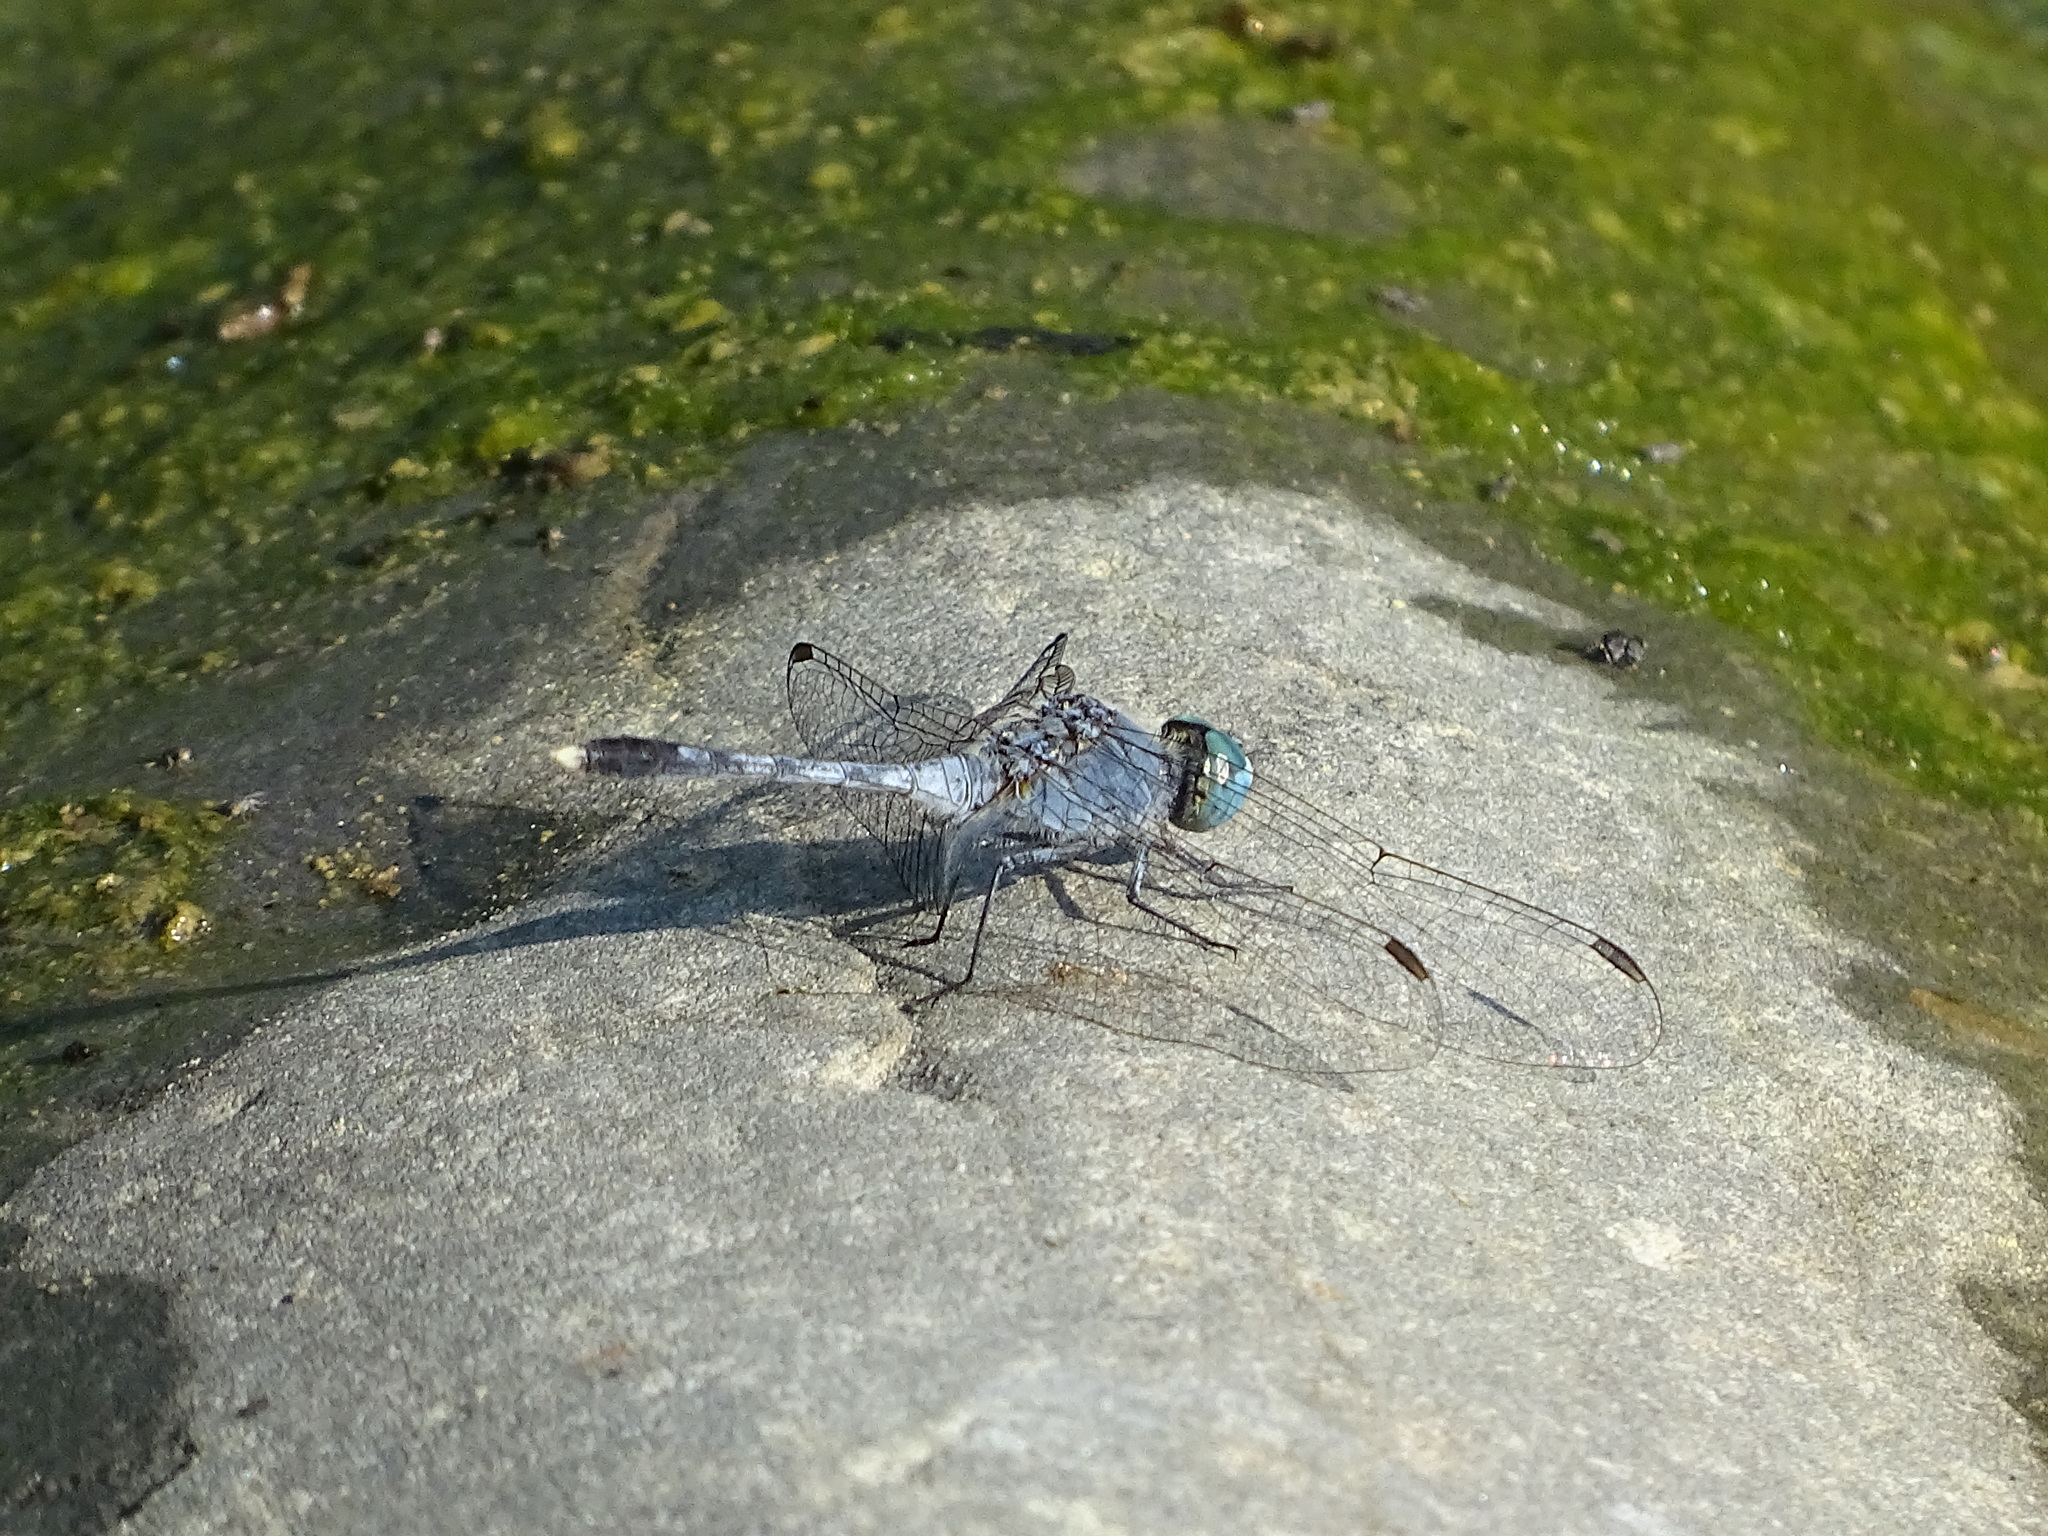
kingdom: Animalia
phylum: Arthropoda
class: Insecta
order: Odonata
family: Libellulidae
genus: Diplacodes
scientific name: Diplacodes trivialis
